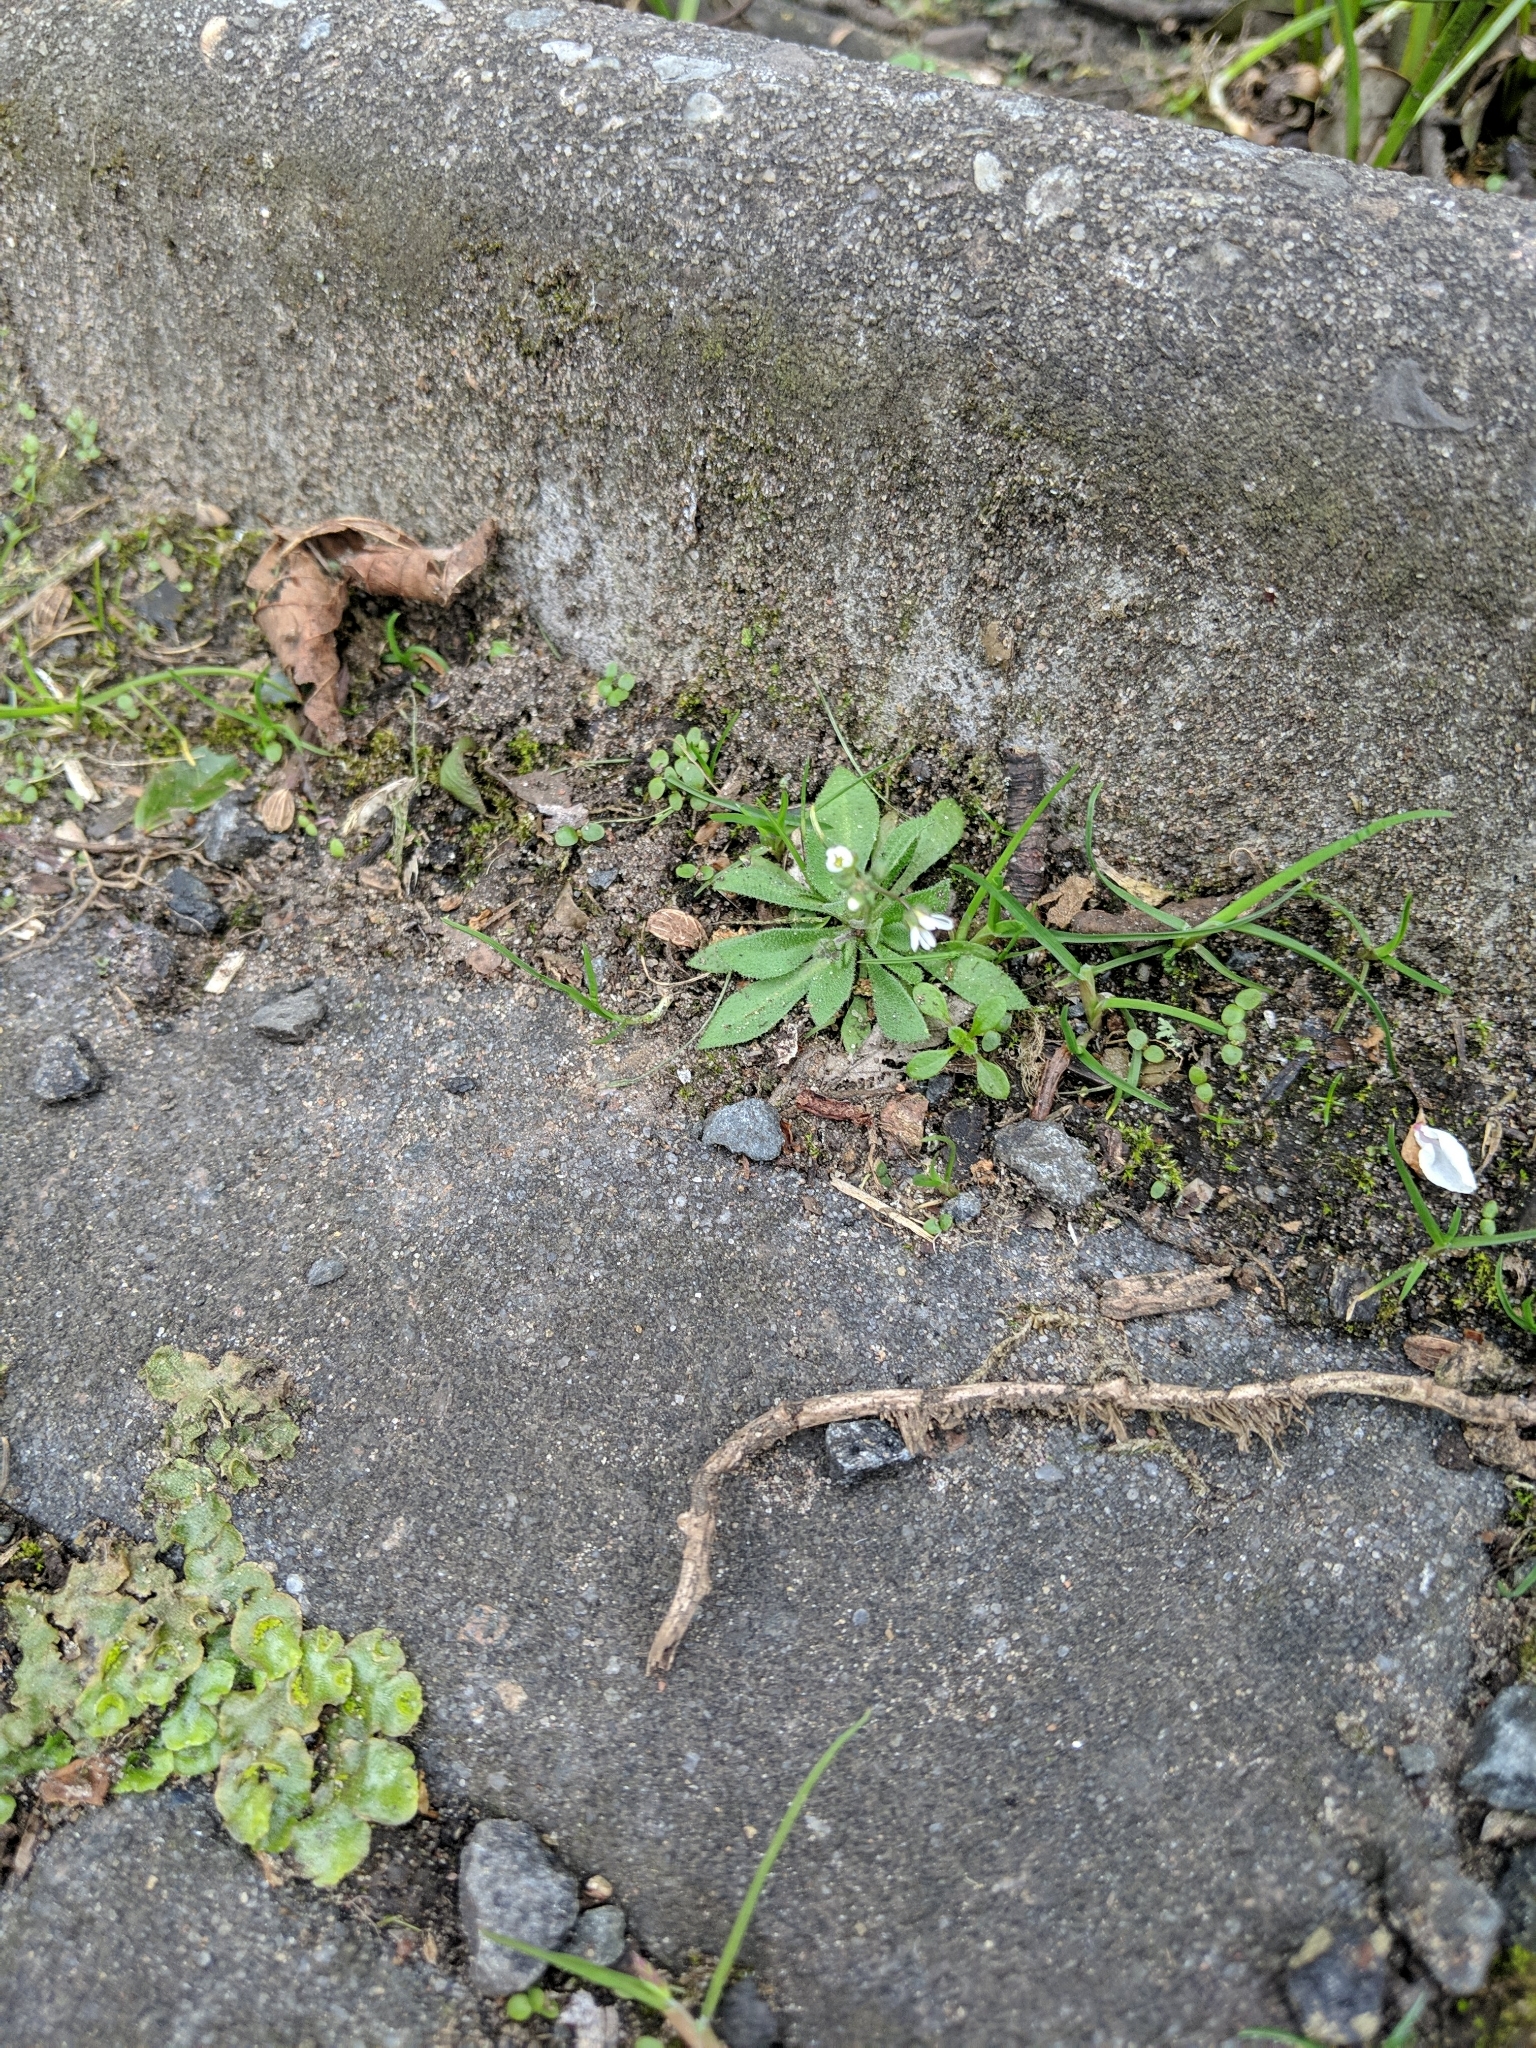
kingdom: Plantae
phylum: Tracheophyta
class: Magnoliopsida
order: Brassicales
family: Brassicaceae
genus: Draba
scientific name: Draba verna
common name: Spring draba
